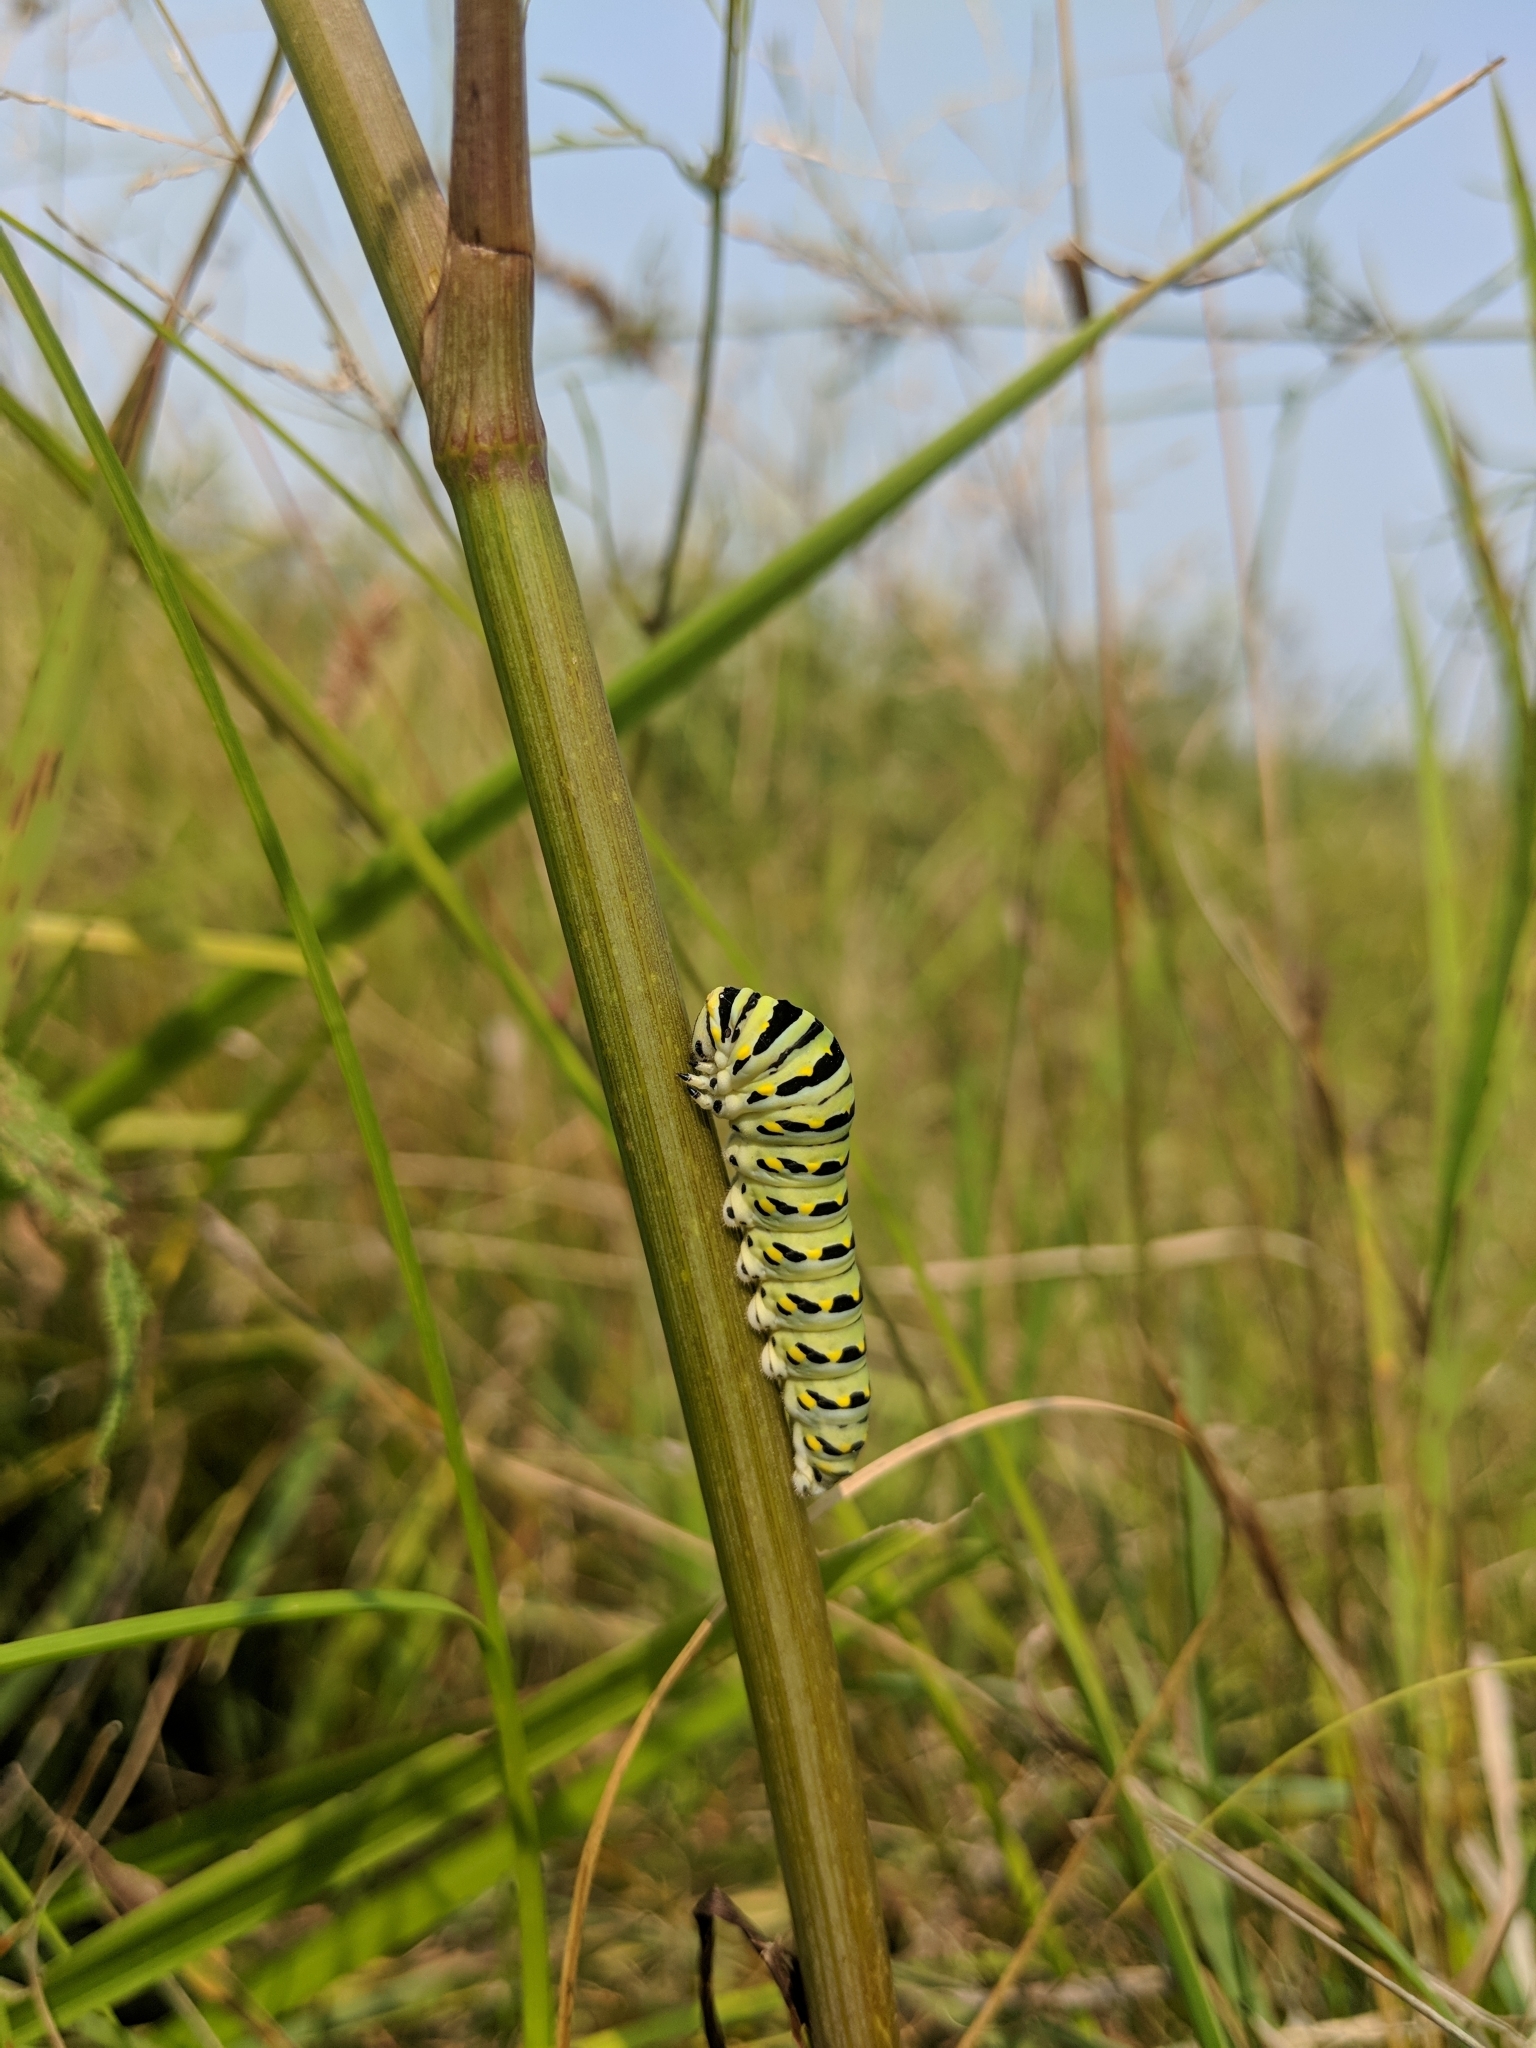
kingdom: Animalia
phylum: Arthropoda
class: Insecta
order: Lepidoptera
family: Papilionidae
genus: Papilio
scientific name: Papilio polyxenes
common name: Black swallowtail
